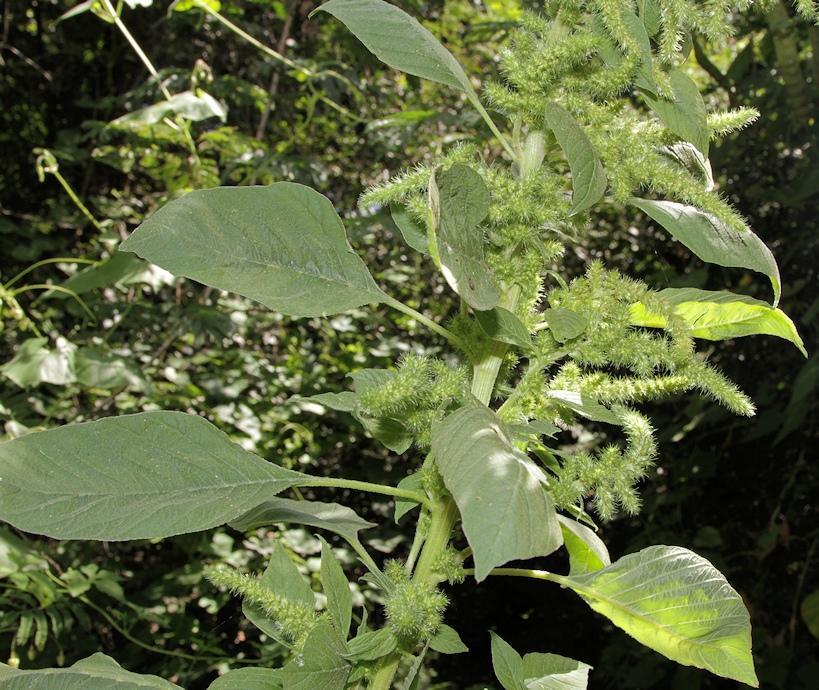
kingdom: Plantae
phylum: Tracheophyta
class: Magnoliopsida
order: Caryophyllales
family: Amaranthaceae
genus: Amaranthus
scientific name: Amaranthus hybridus
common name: Green amaranth
